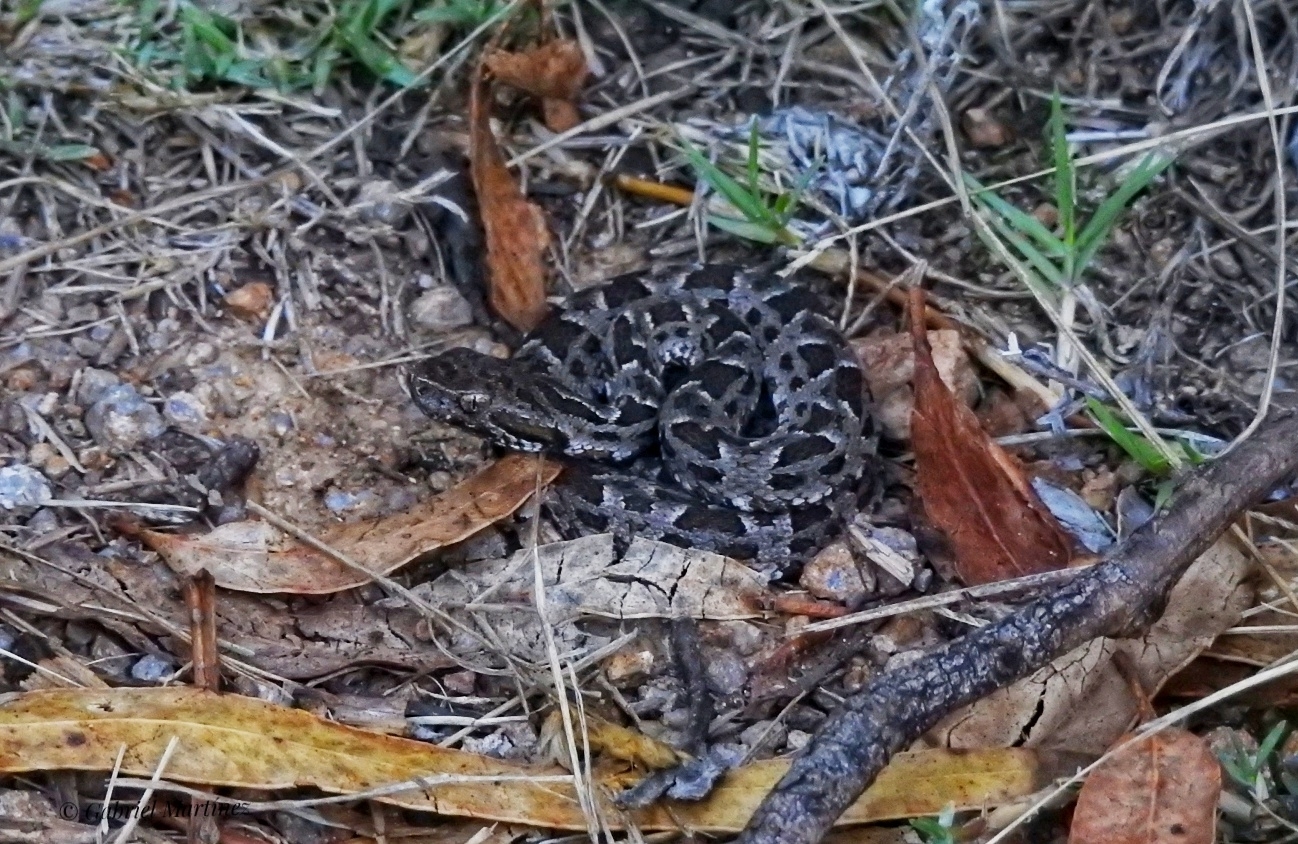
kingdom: Animalia
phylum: Chordata
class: Squamata
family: Viperidae
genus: Bothrops
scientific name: Bothrops pubescens
